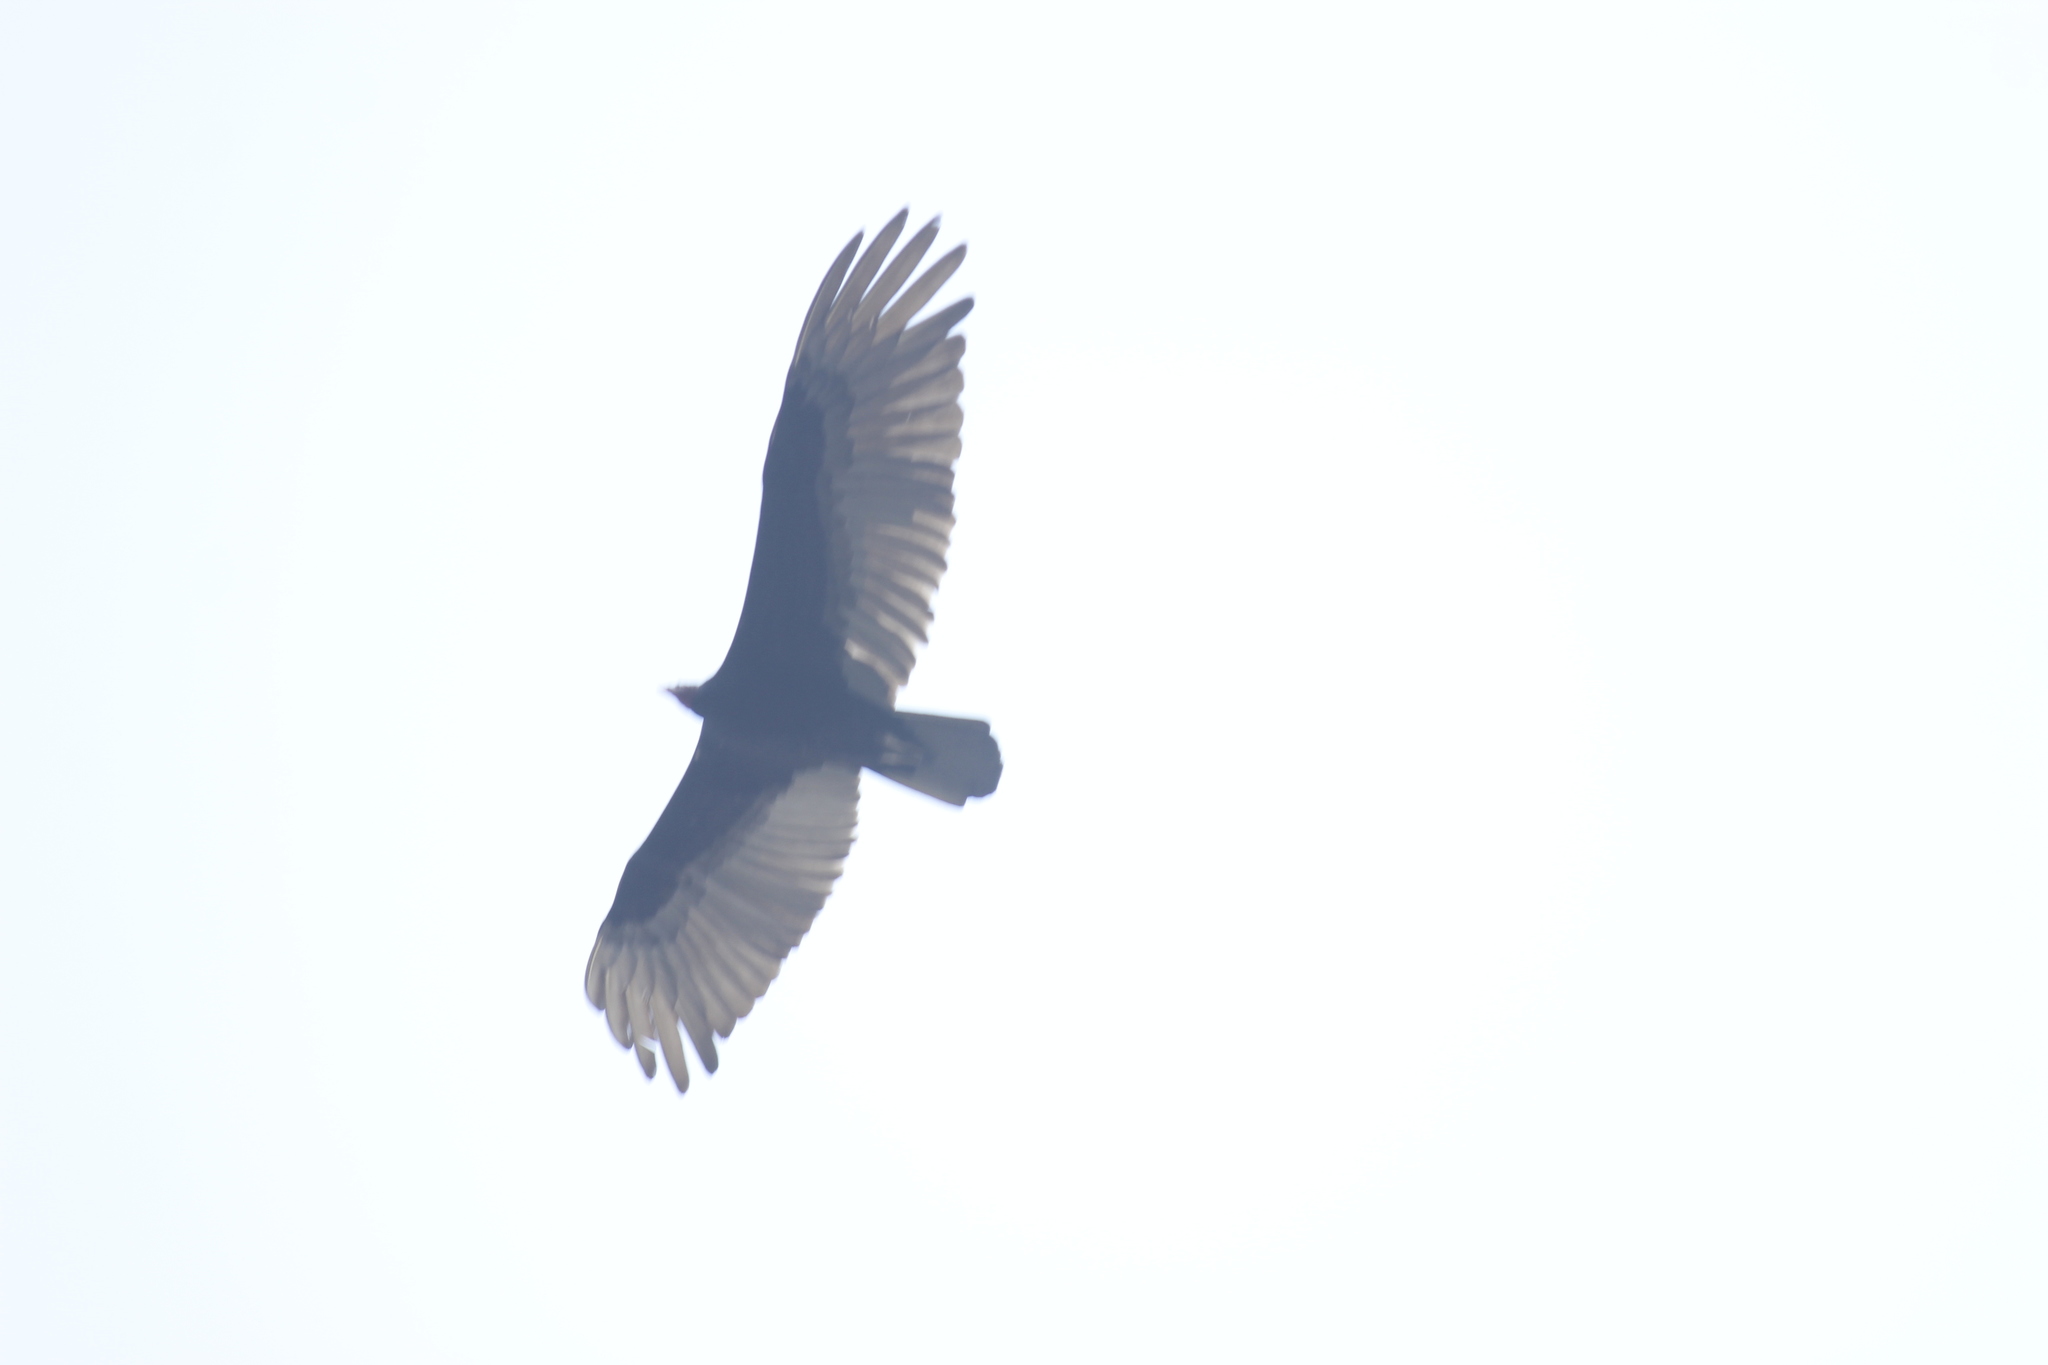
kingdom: Animalia
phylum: Chordata
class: Aves
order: Accipitriformes
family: Cathartidae
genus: Cathartes
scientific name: Cathartes aura
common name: Turkey vulture
